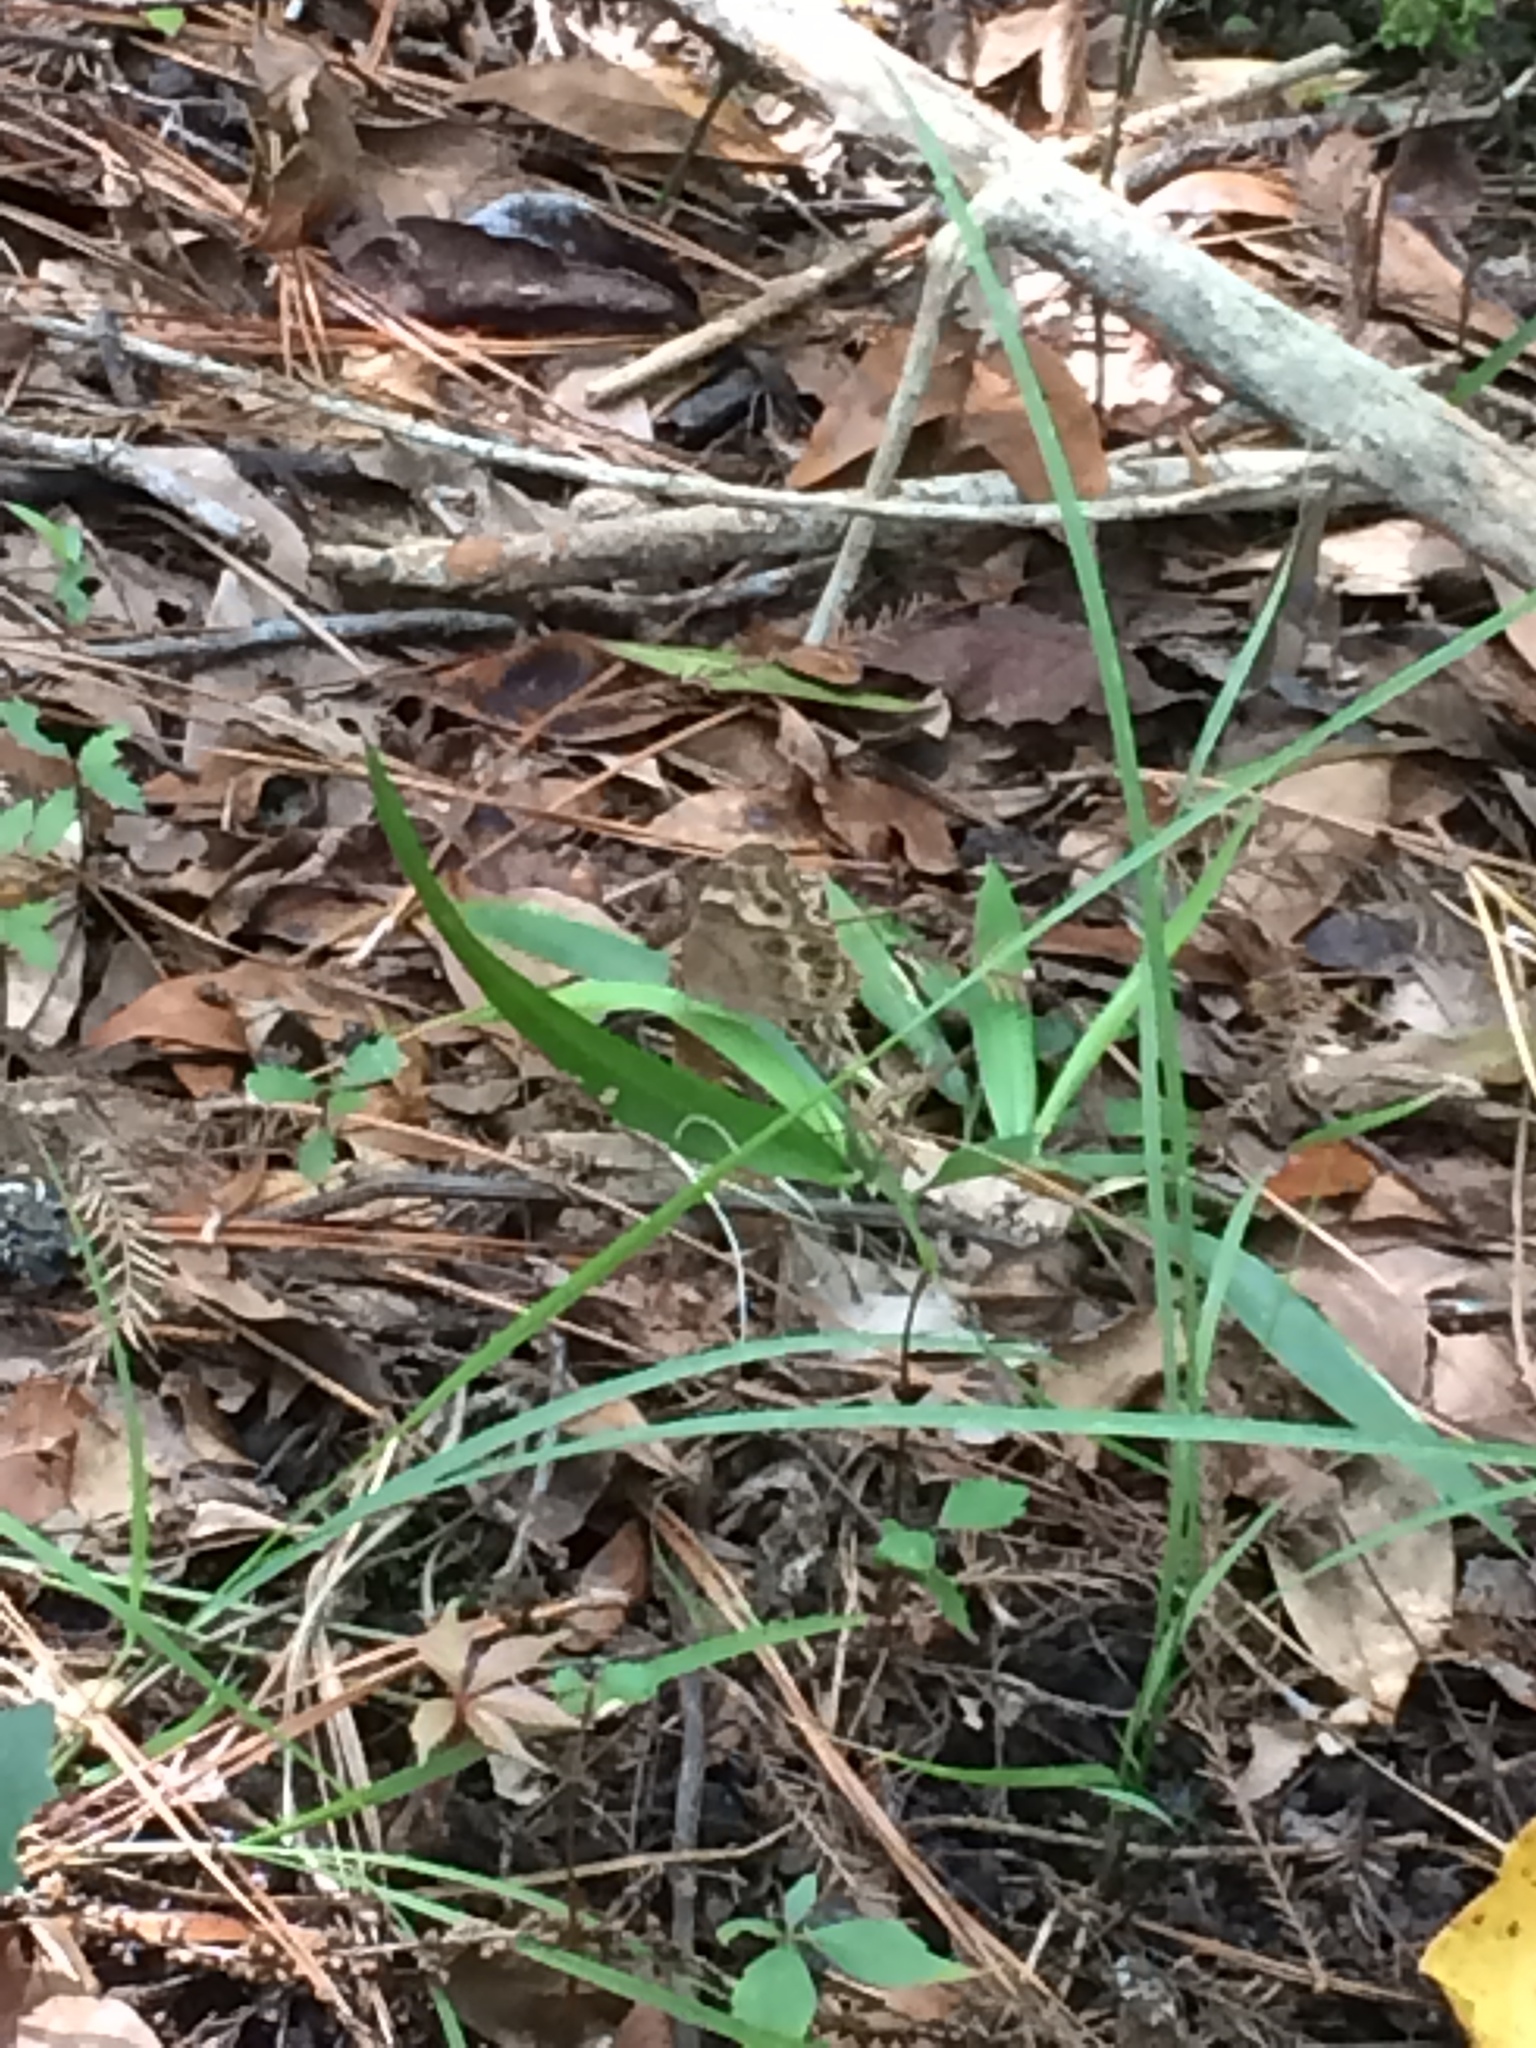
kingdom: Animalia
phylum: Arthropoda
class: Insecta
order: Lepidoptera
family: Nymphalidae
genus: Enodia
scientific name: Enodia portlandia
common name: Southern pearly-eye
